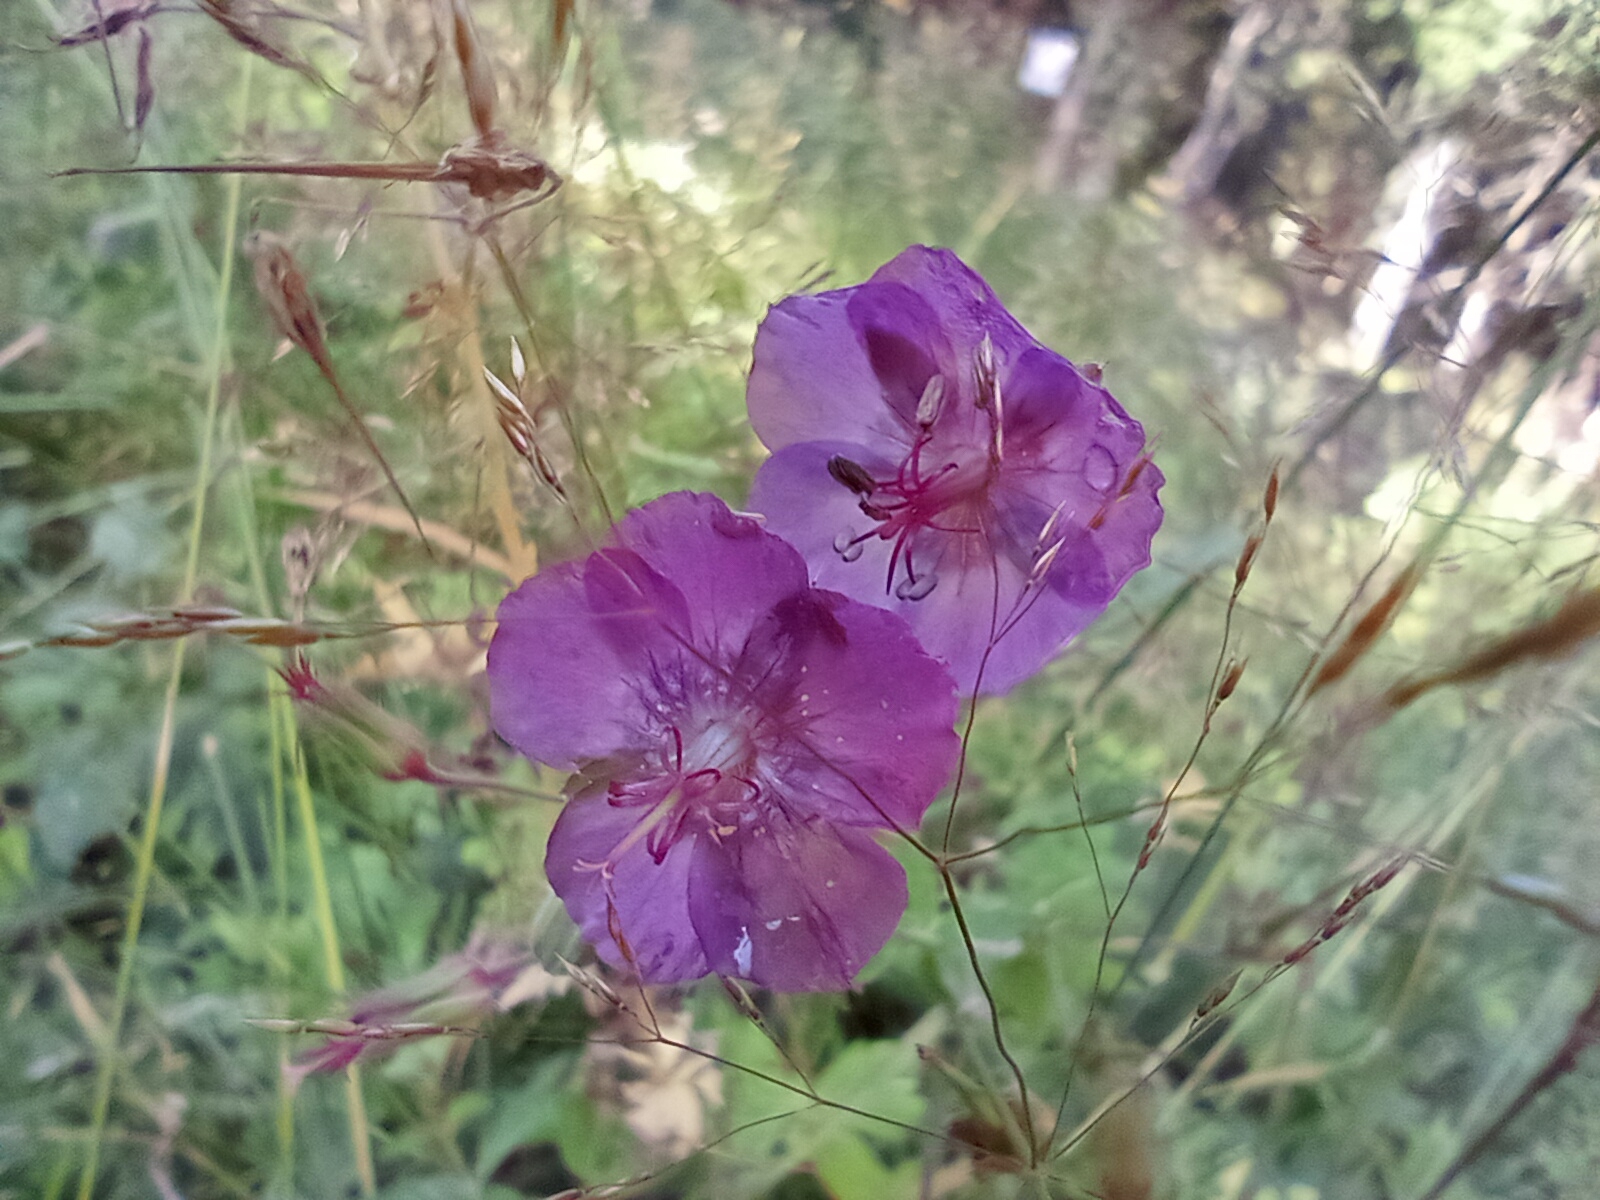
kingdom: Plantae
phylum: Tracheophyta
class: Magnoliopsida
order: Geraniales
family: Geraniaceae
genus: Geranium
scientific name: Geranium phaeum
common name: Dusky crane's-bill
